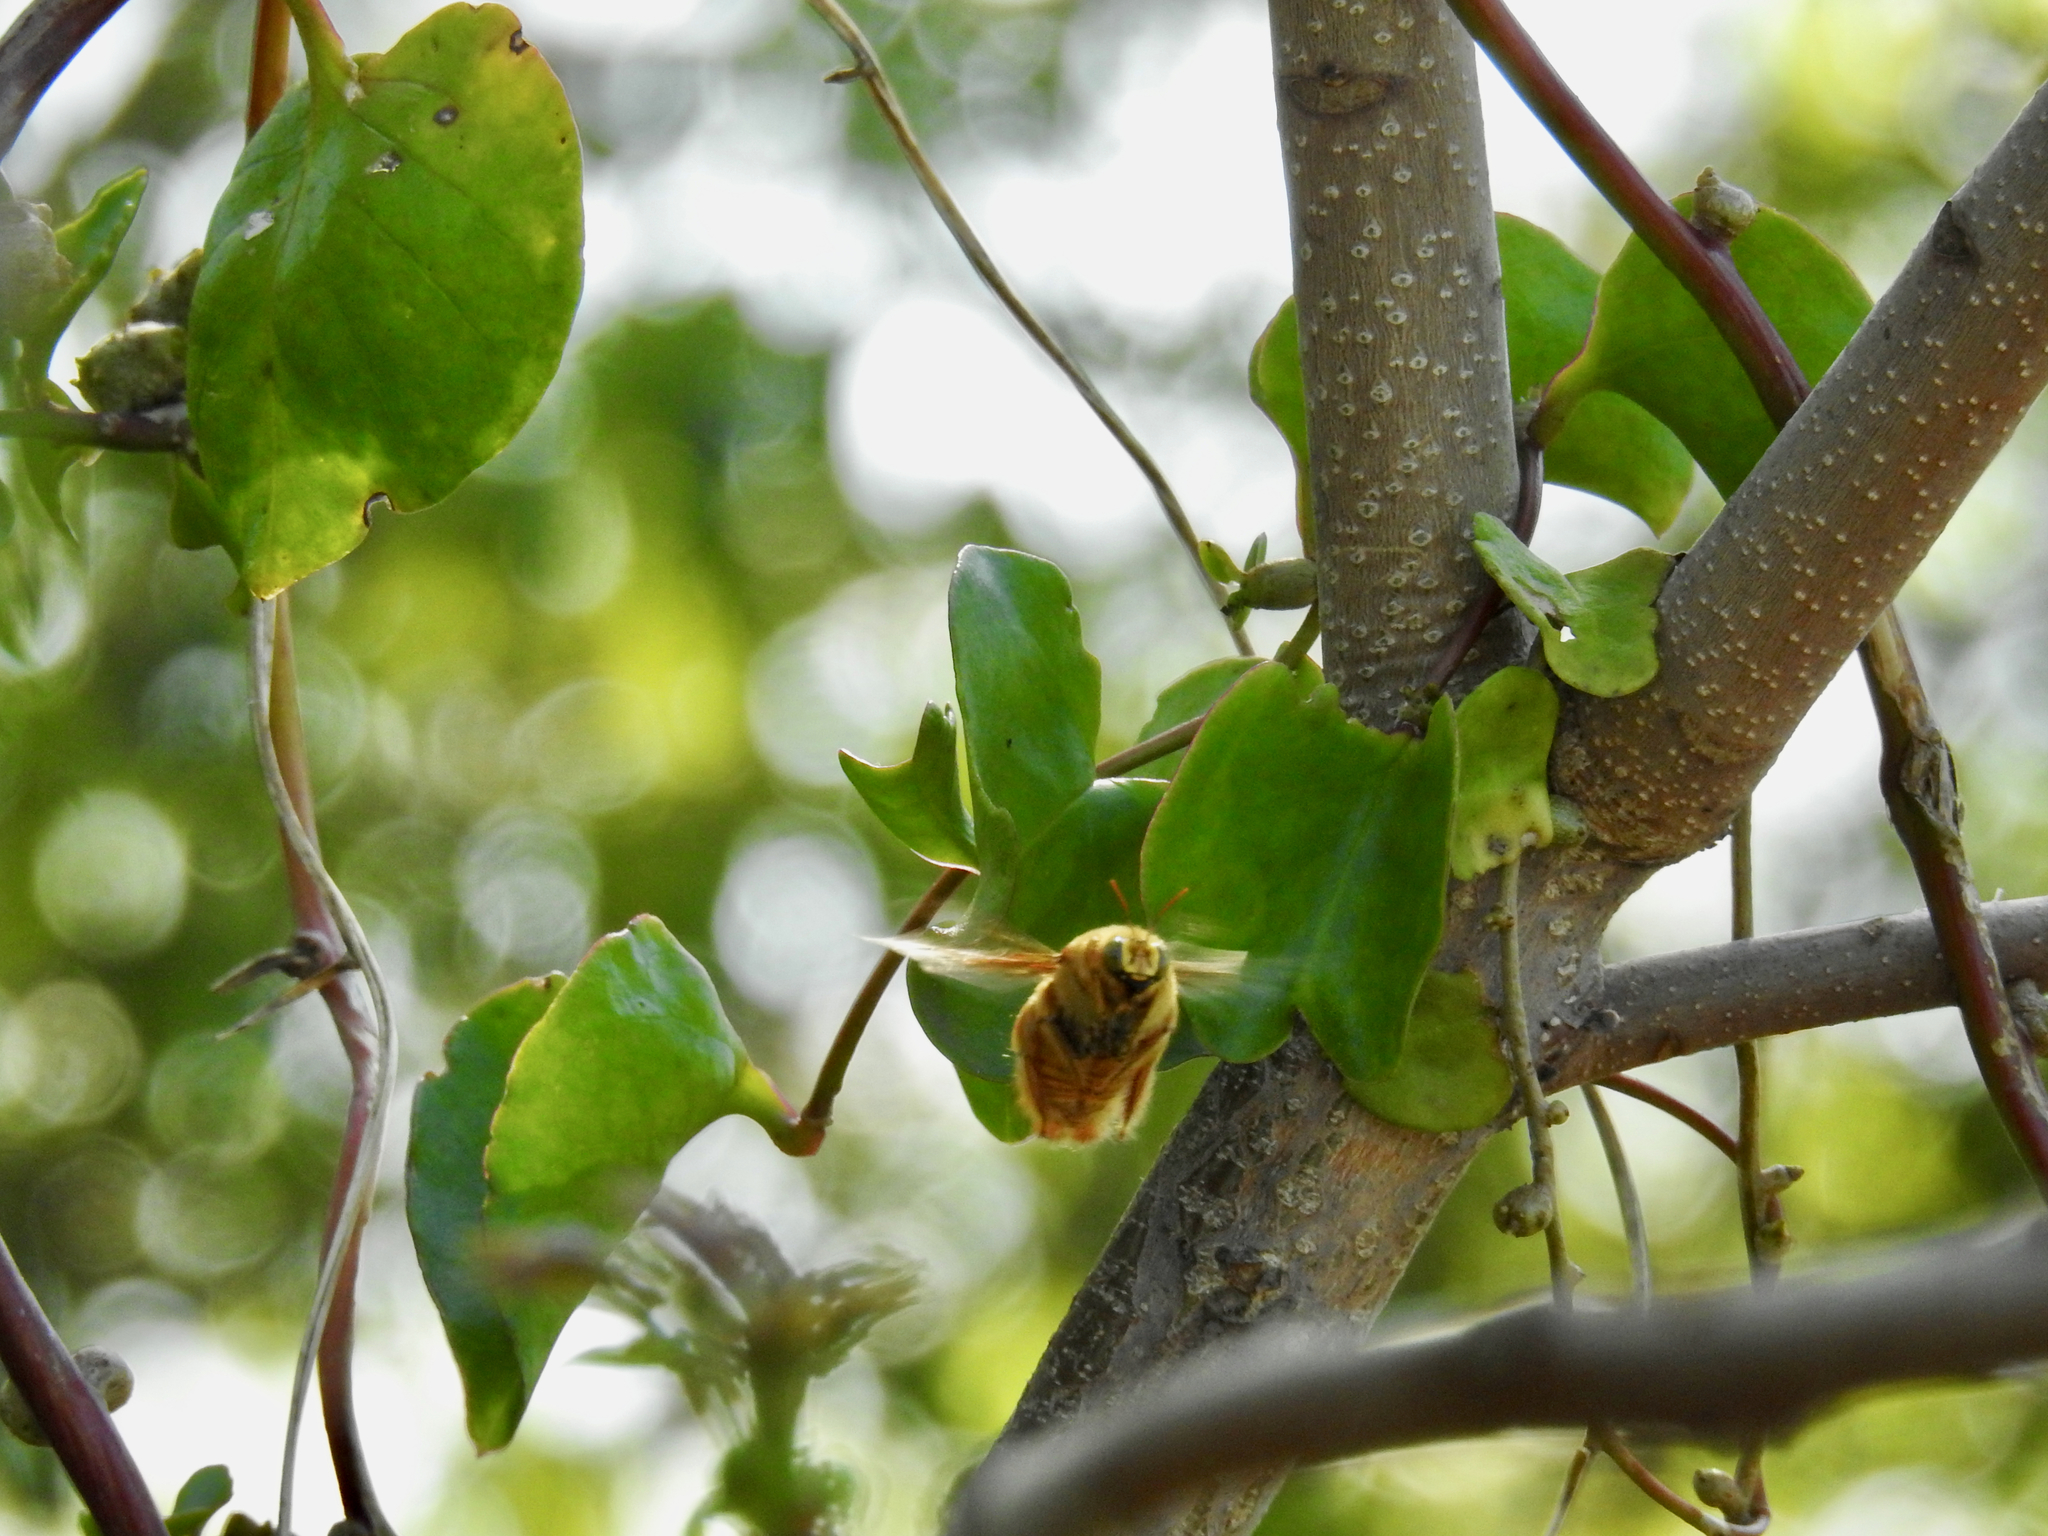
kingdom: Animalia
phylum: Arthropoda
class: Insecta
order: Hymenoptera
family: Apidae
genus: Xylocopa
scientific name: Xylocopa sonorina
